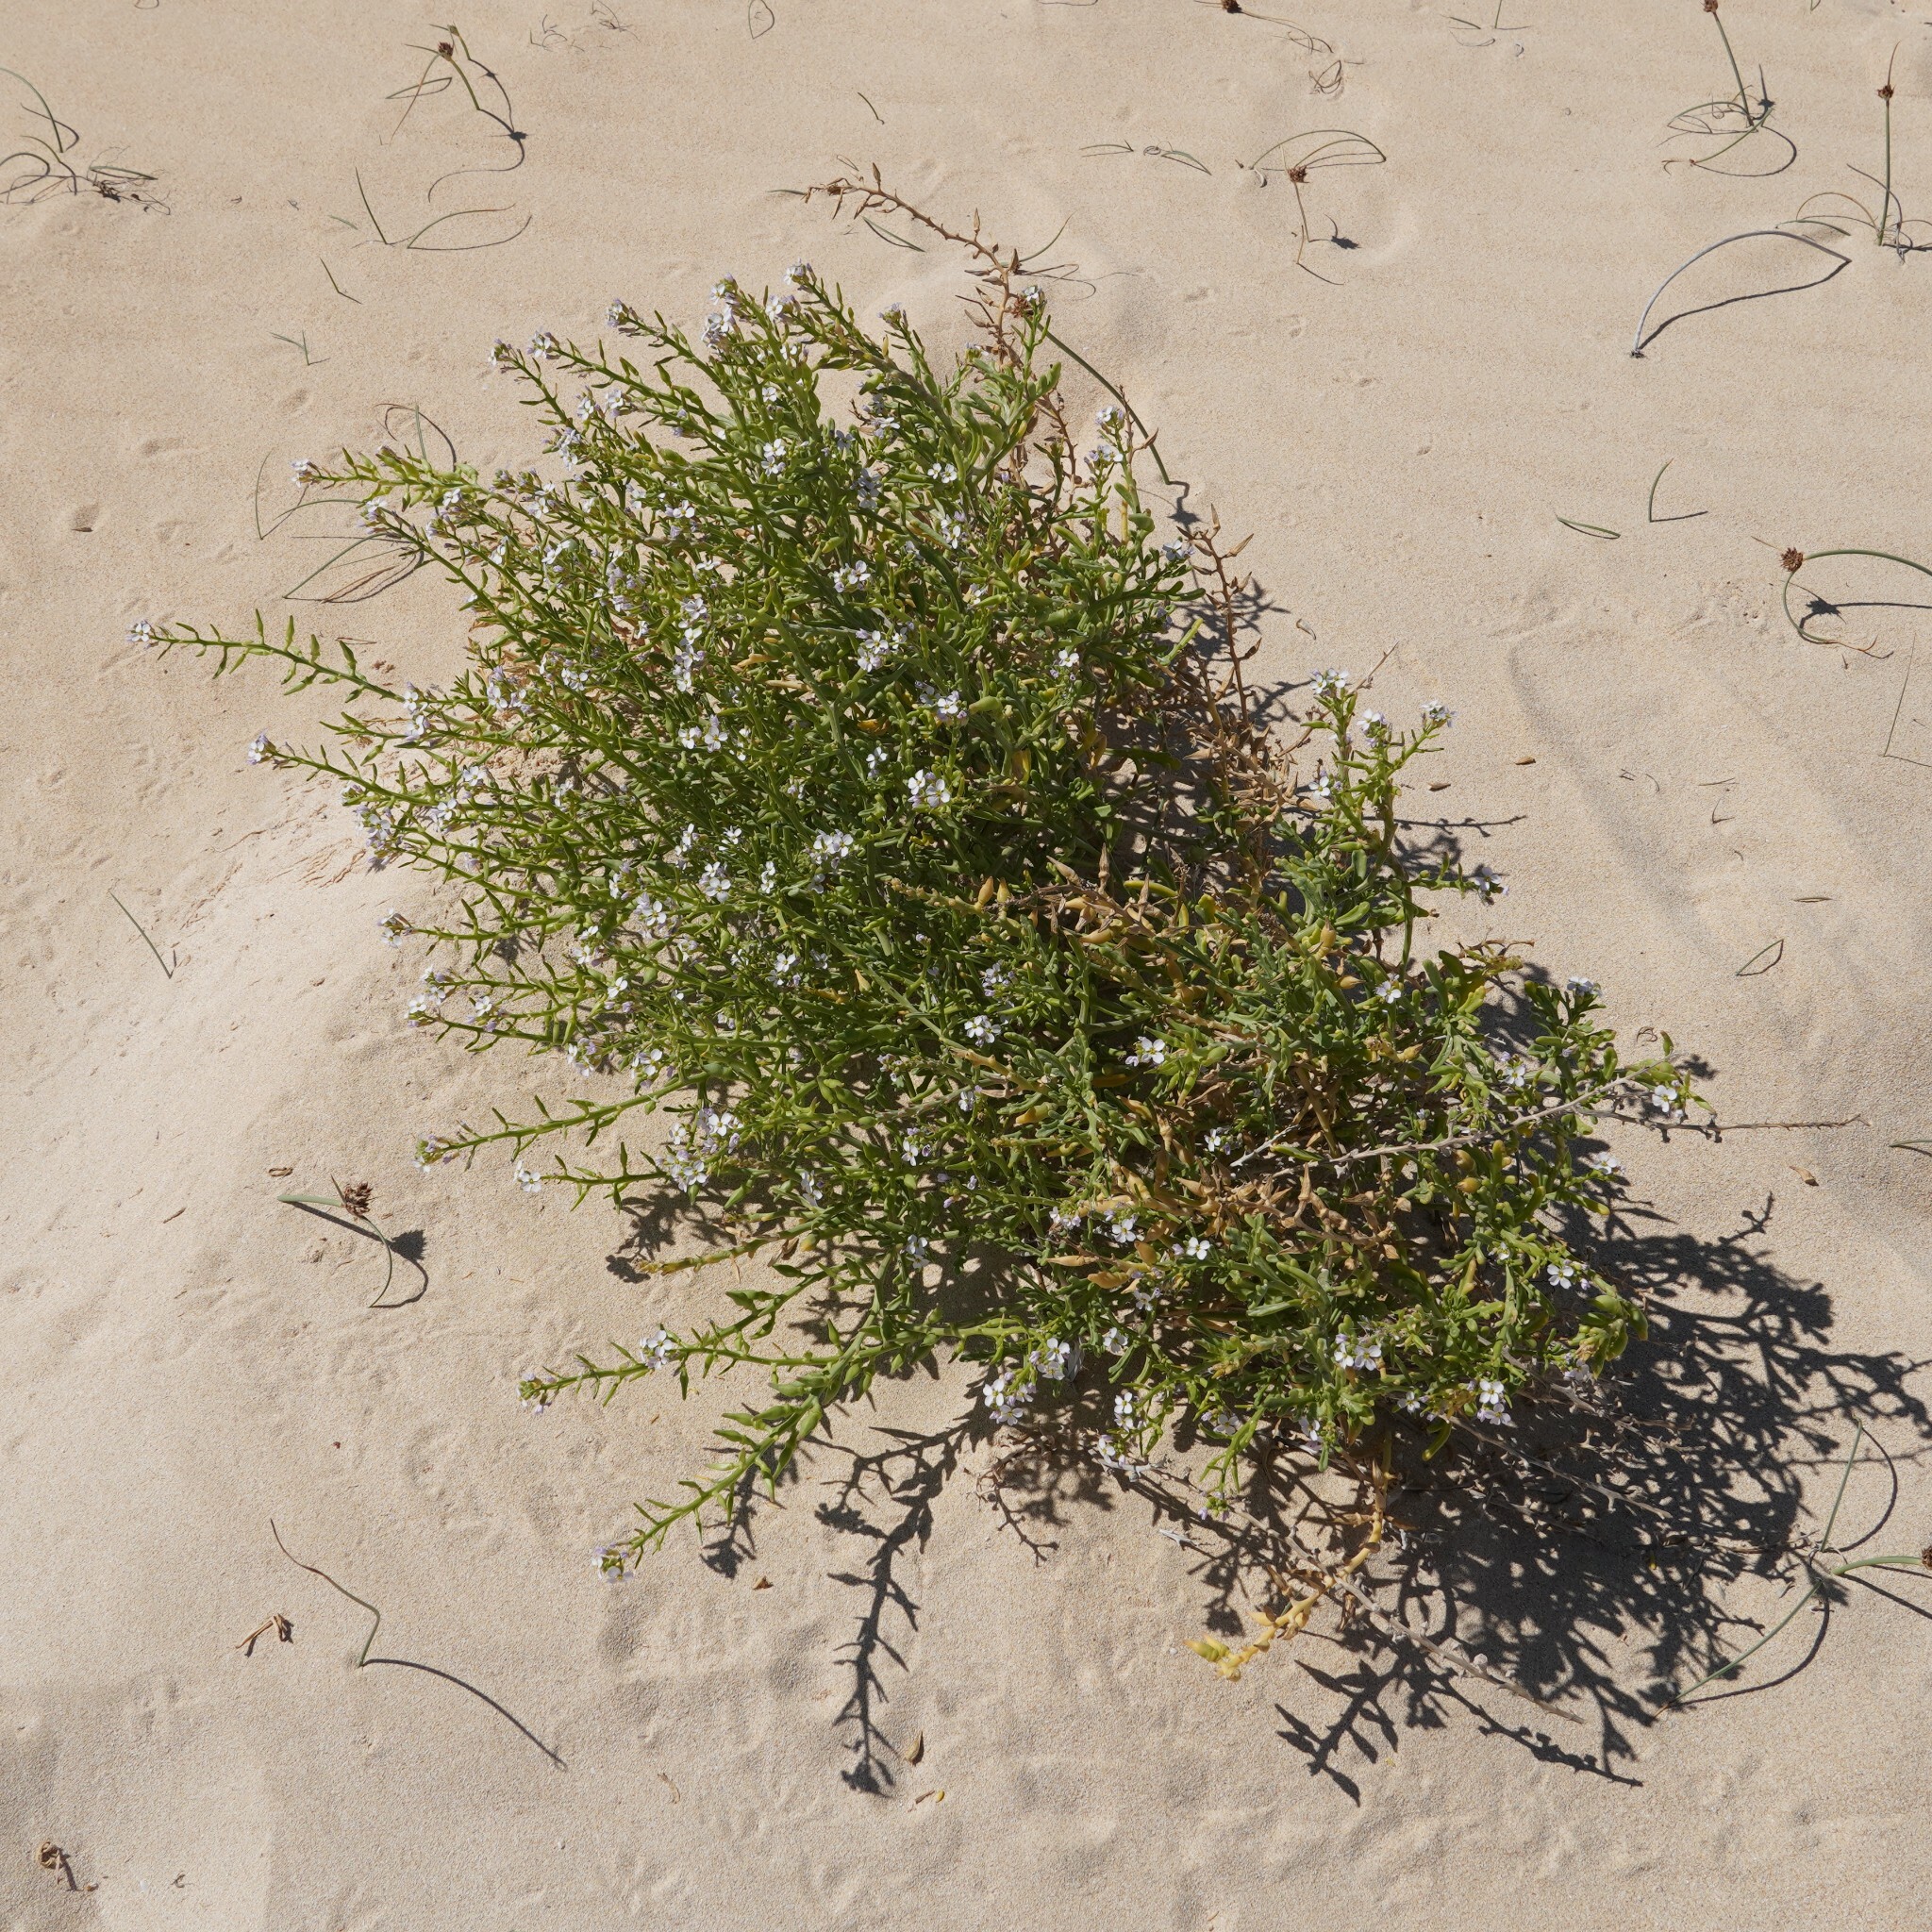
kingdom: Plantae
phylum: Tracheophyta
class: Magnoliopsida
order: Brassicales
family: Brassicaceae
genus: Cakile
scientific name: Cakile maritima
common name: Sea rocket
